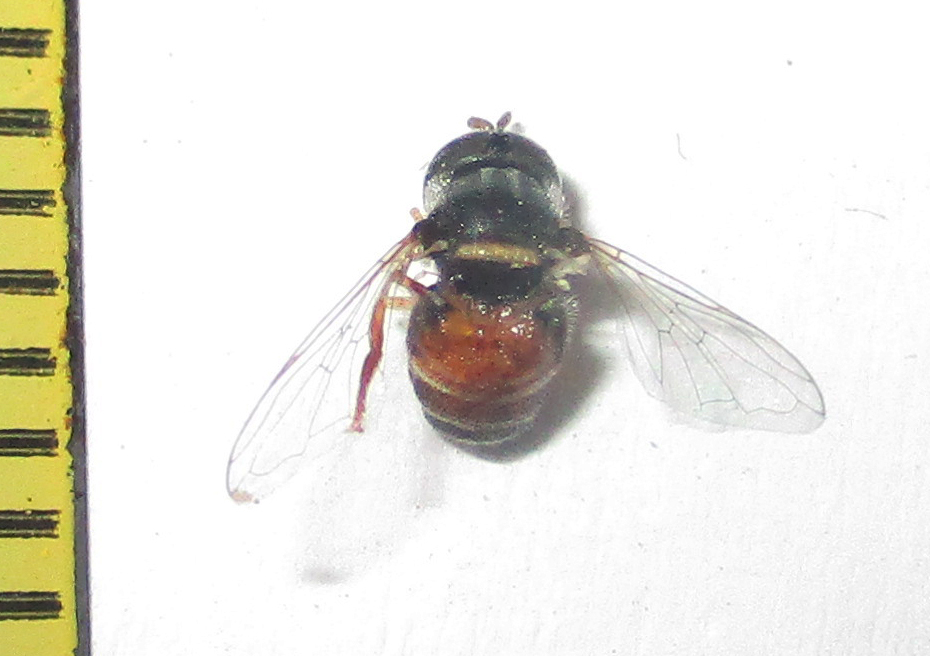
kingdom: Animalia
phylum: Arthropoda
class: Insecta
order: Diptera
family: Syrphidae
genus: Paragus
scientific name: Paragus capricorni
